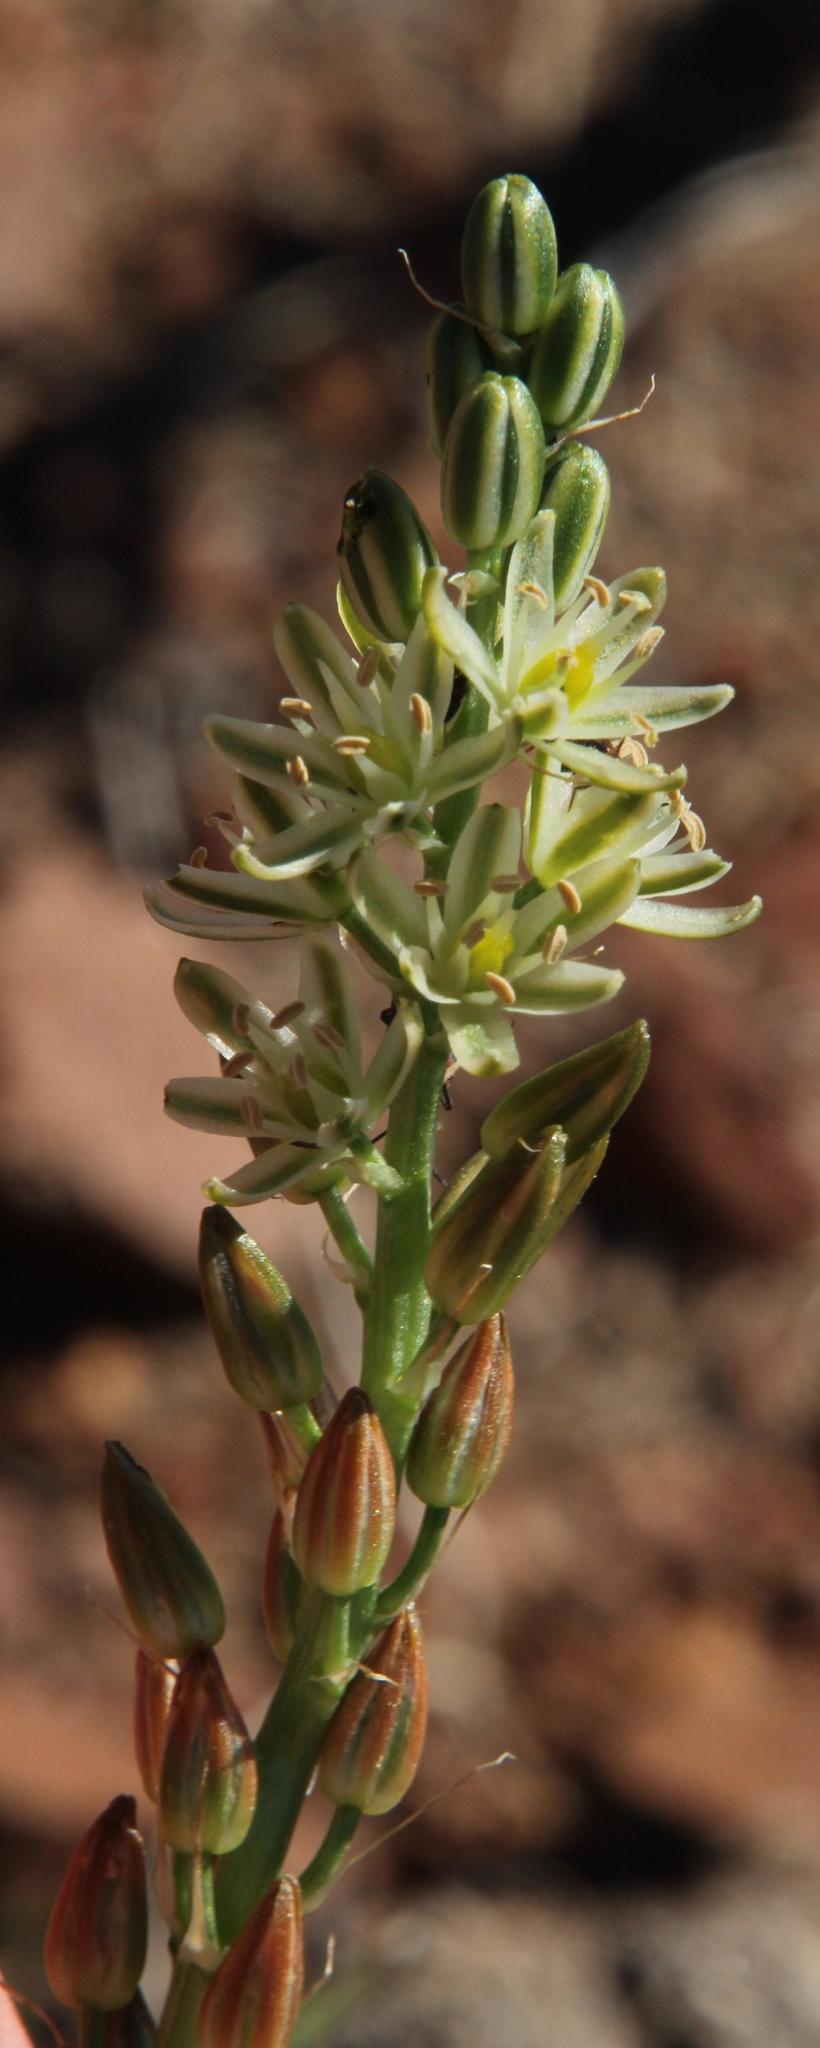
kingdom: Plantae
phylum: Tracheophyta
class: Liliopsida
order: Asparagales
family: Asparagaceae
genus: Albuca
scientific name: Albuca virens
